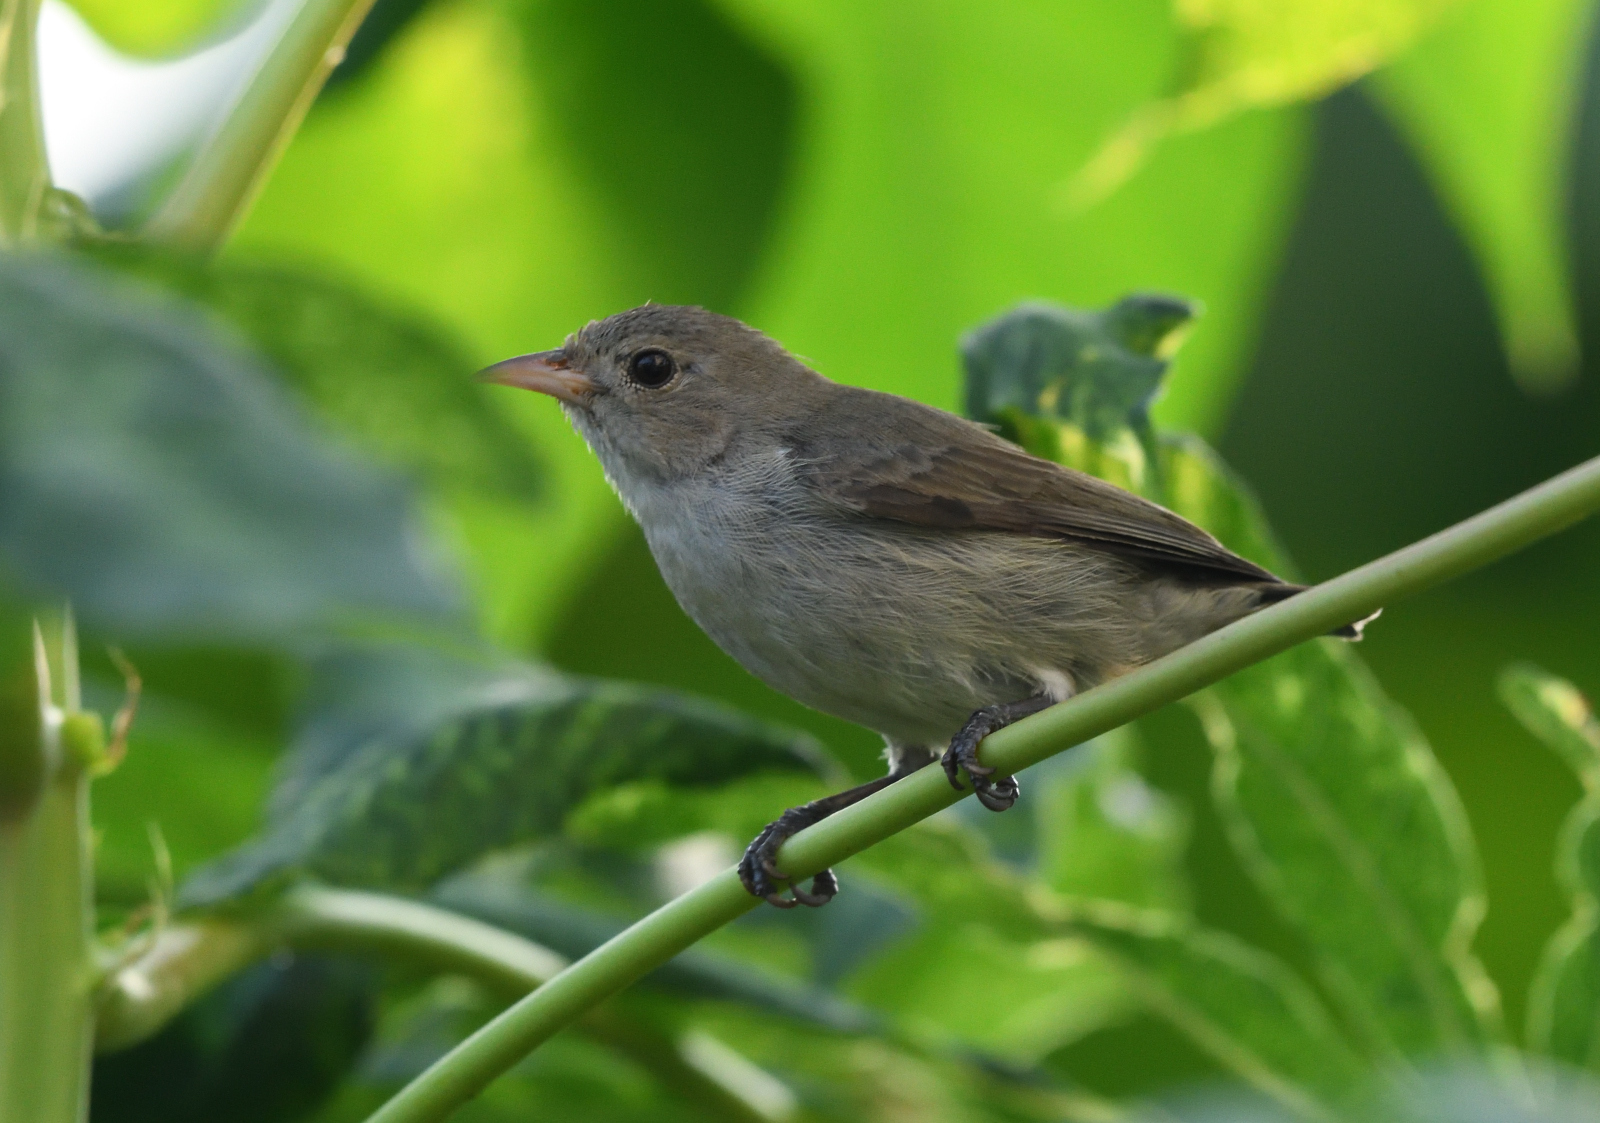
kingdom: Animalia
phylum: Chordata
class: Aves
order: Passeriformes
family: Dicaeidae
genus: Dicaeum
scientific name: Dicaeum erythrorhynchos
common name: Pale-billed flowerpecker
